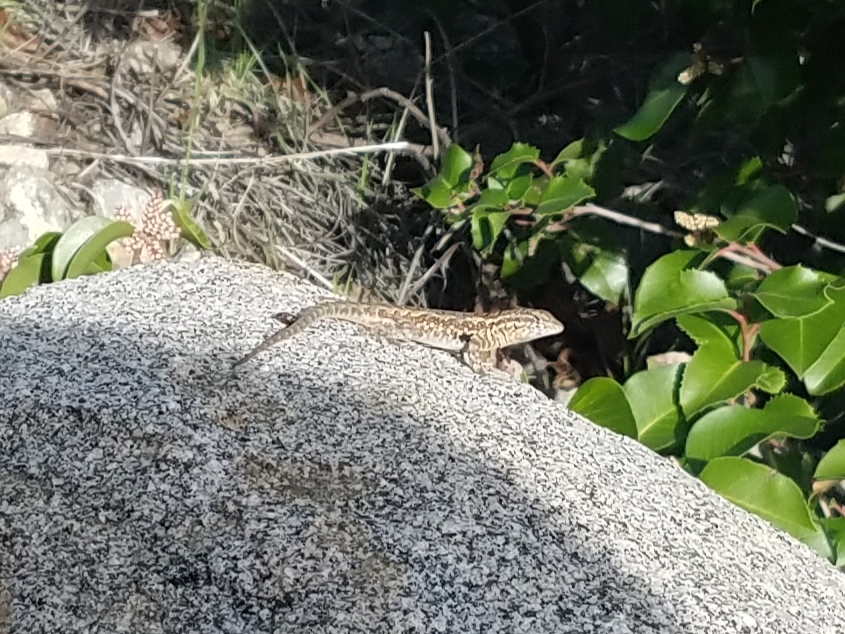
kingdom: Animalia
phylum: Chordata
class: Squamata
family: Phrynosomatidae
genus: Uta
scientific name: Uta stansburiana
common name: Side-blotched lizard
